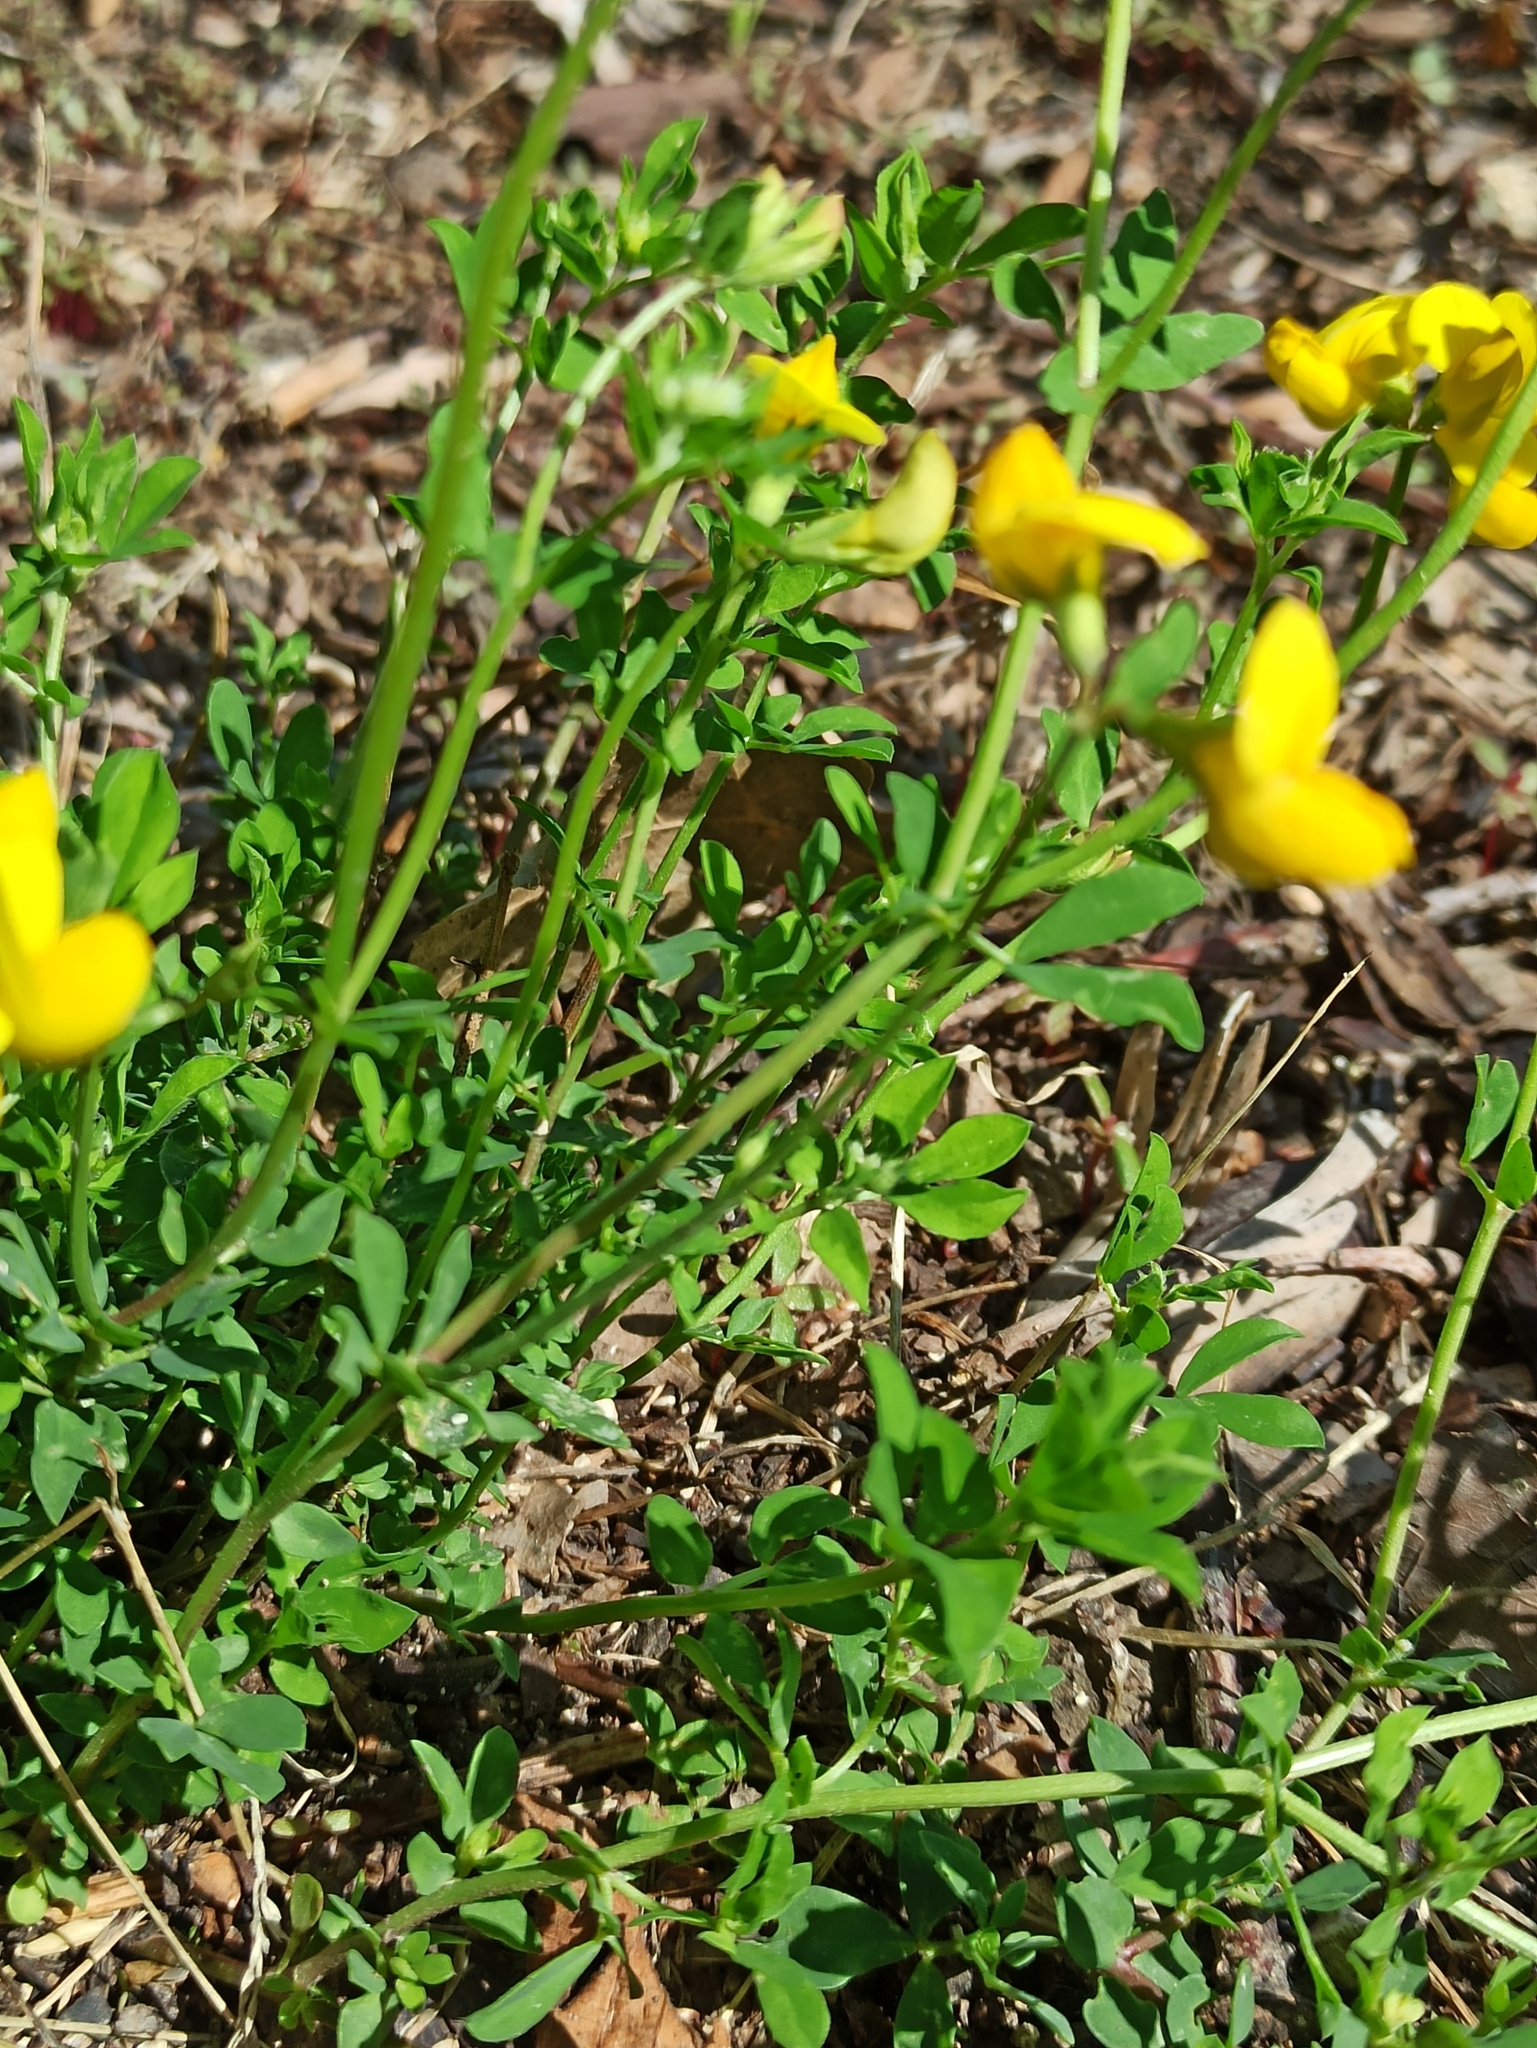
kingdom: Plantae
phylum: Tracheophyta
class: Magnoliopsida
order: Fabales
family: Fabaceae
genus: Lotus
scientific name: Lotus corniculatus
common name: Common bird's-foot-trefoil
